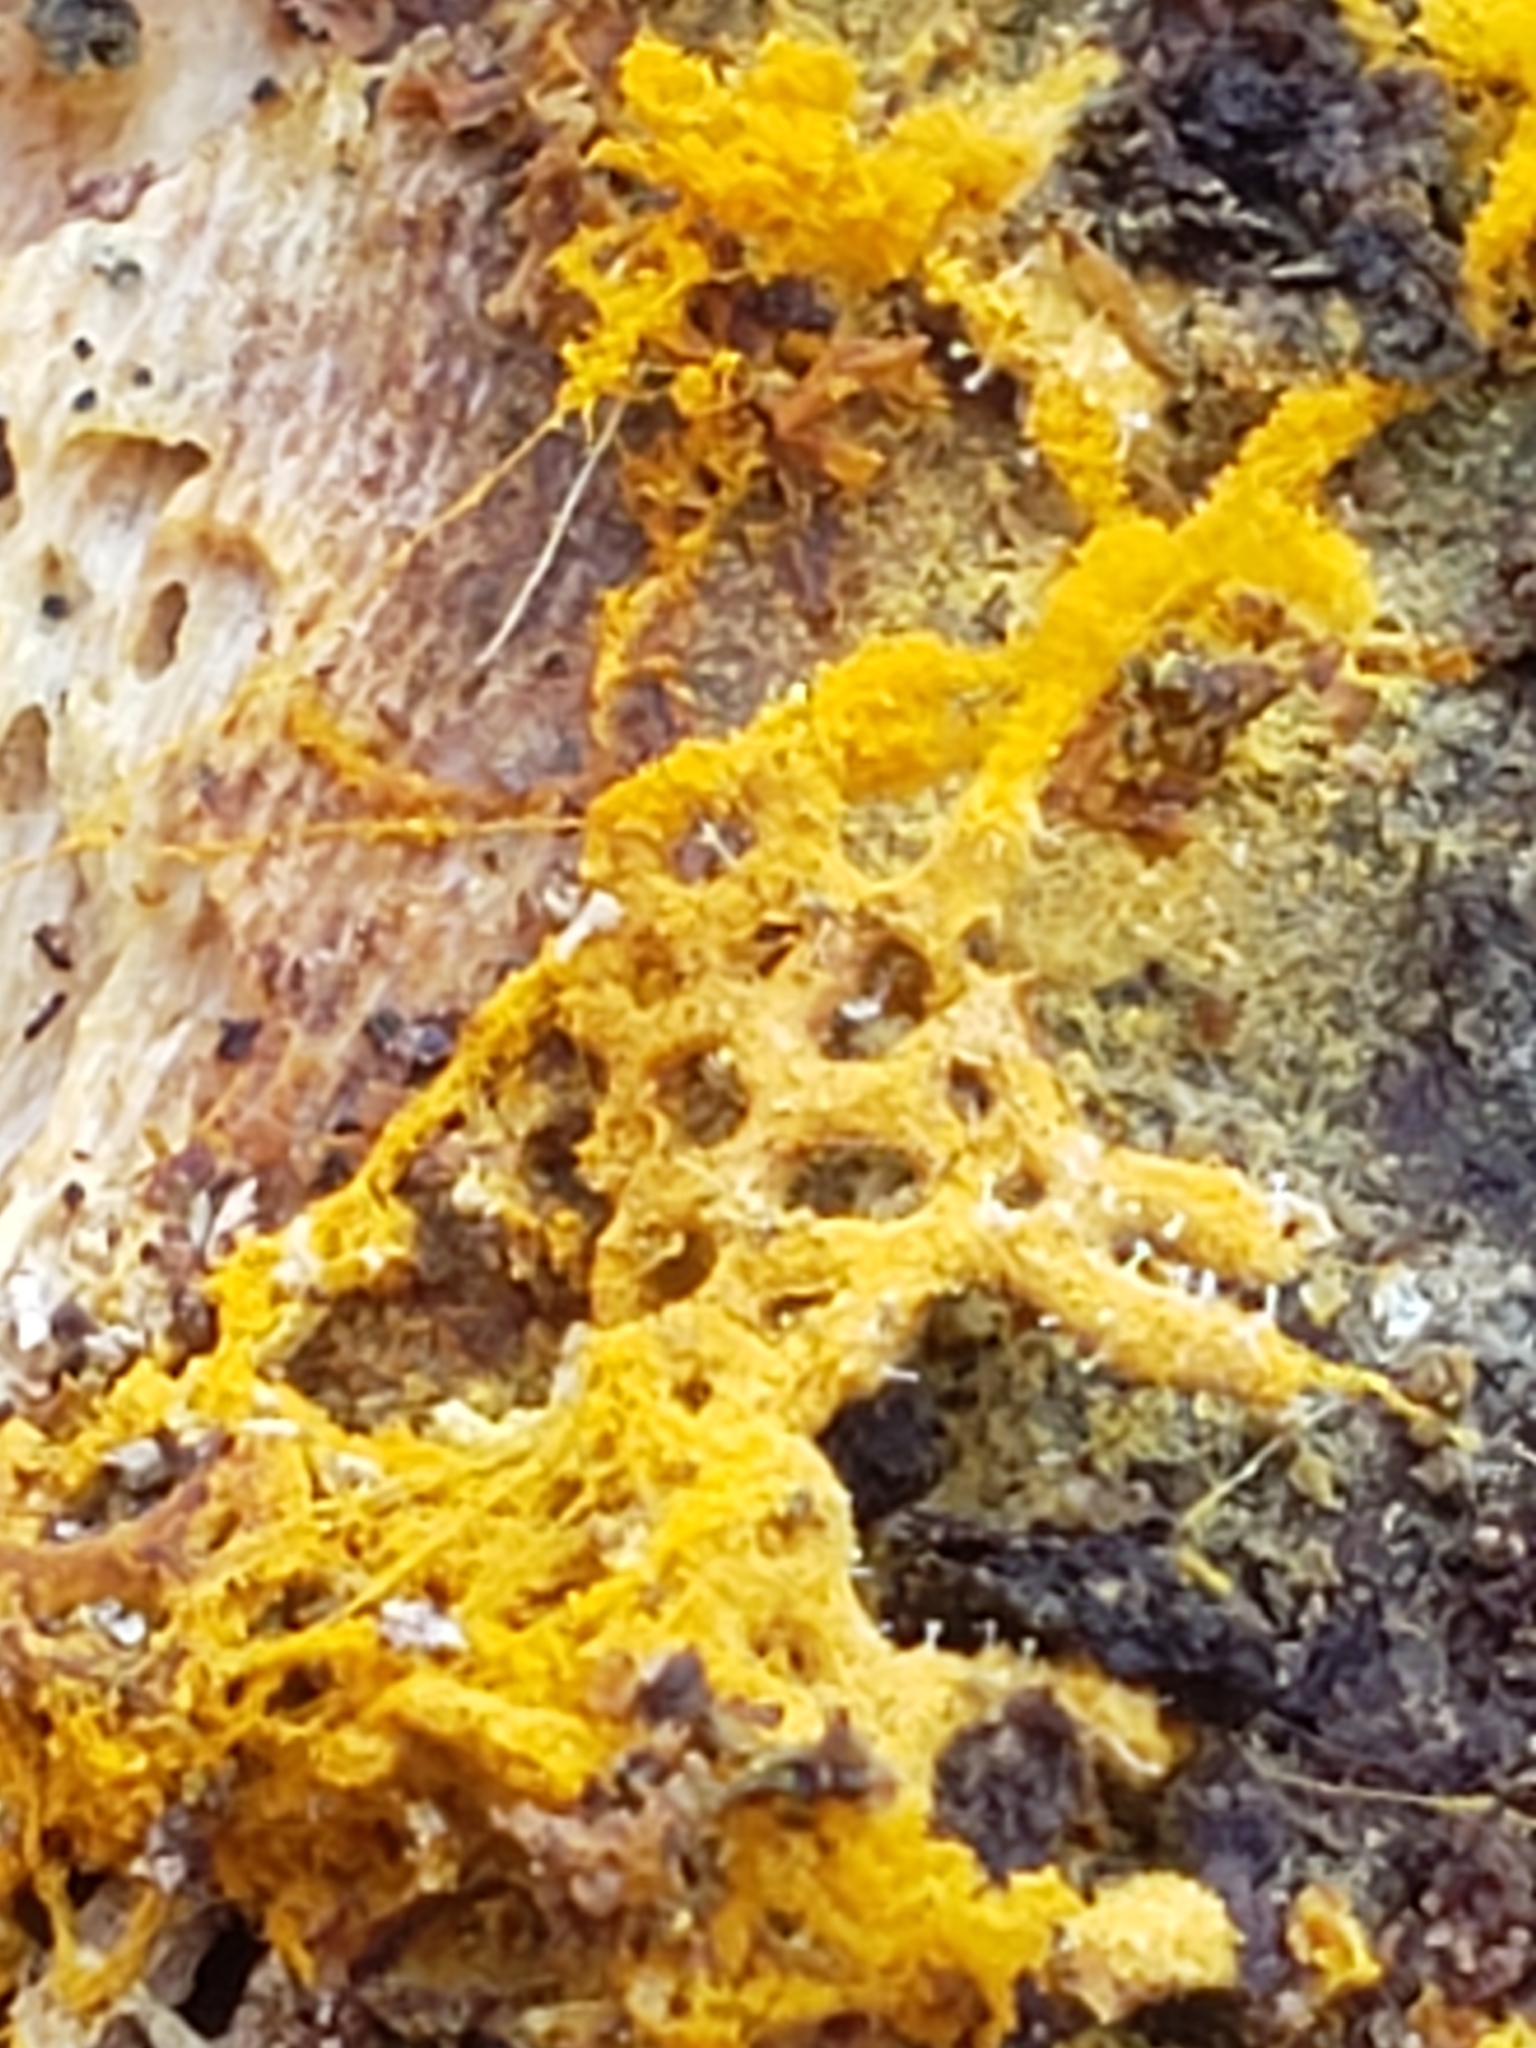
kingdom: Protozoa
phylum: Mycetozoa
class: Myxomycetes
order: Trichiales
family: Arcyriaceae
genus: Hemitrichia
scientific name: Hemitrichia serpula
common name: Pretzel slime mold
